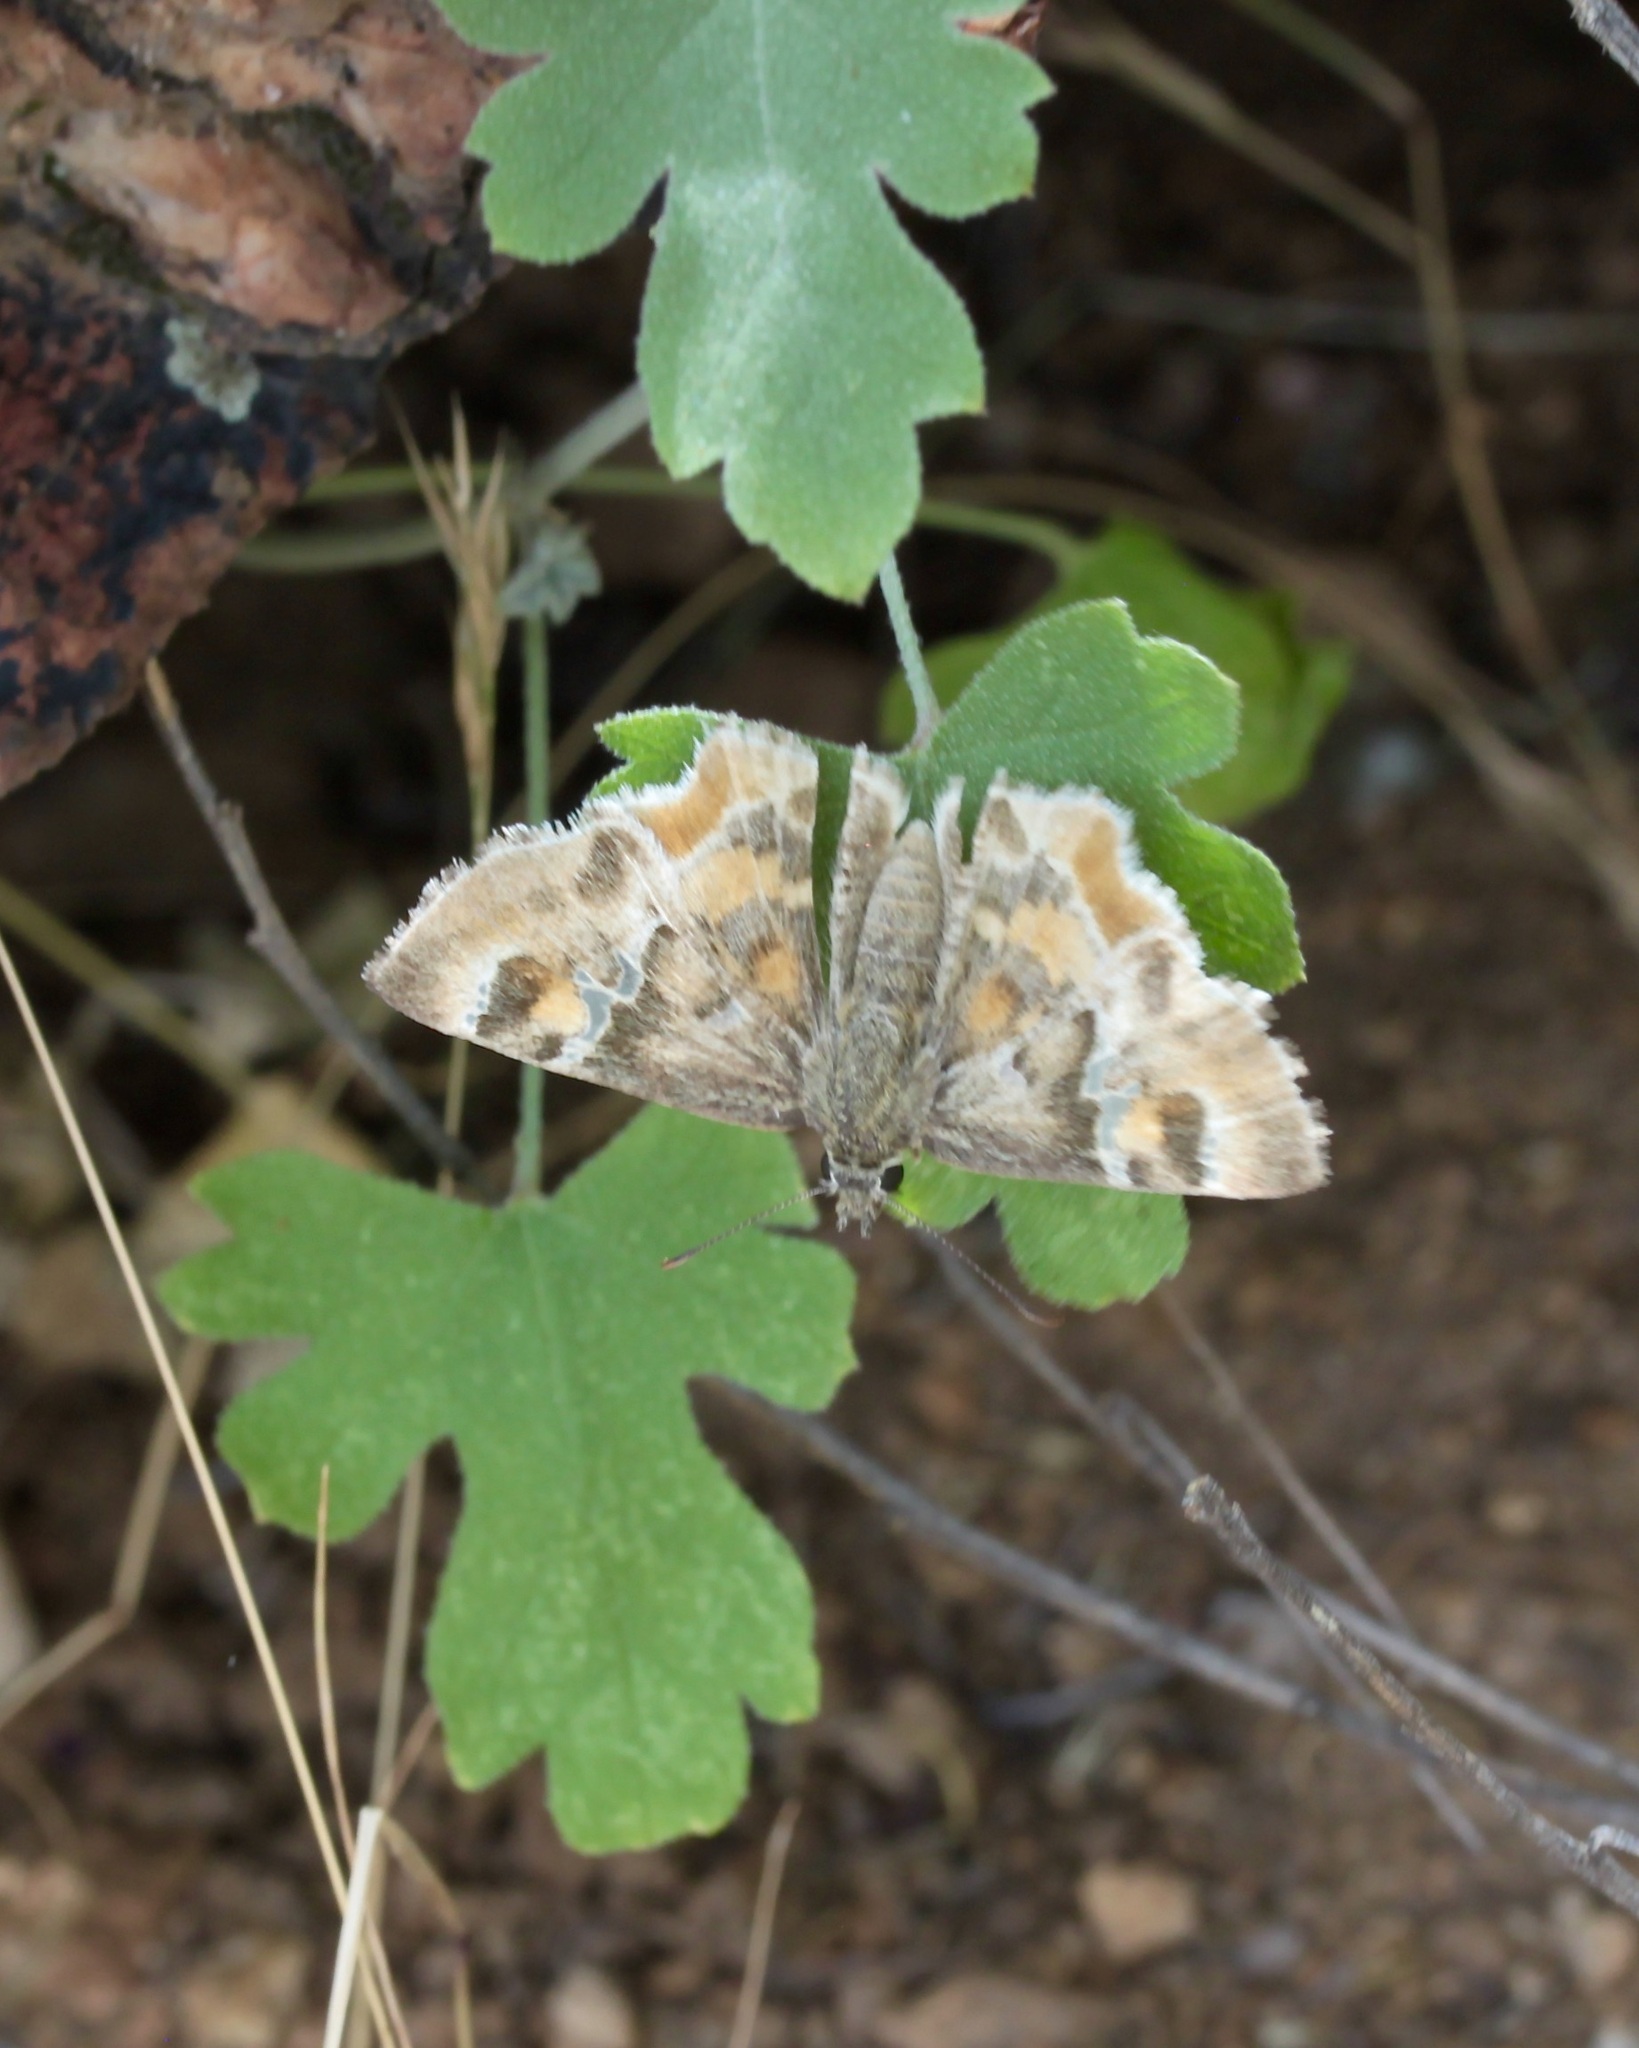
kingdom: Animalia
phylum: Arthropoda
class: Insecta
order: Lepidoptera
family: Hesperiidae
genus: Systasea
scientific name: Systasea zampa
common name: Arizona powdered-skipper
